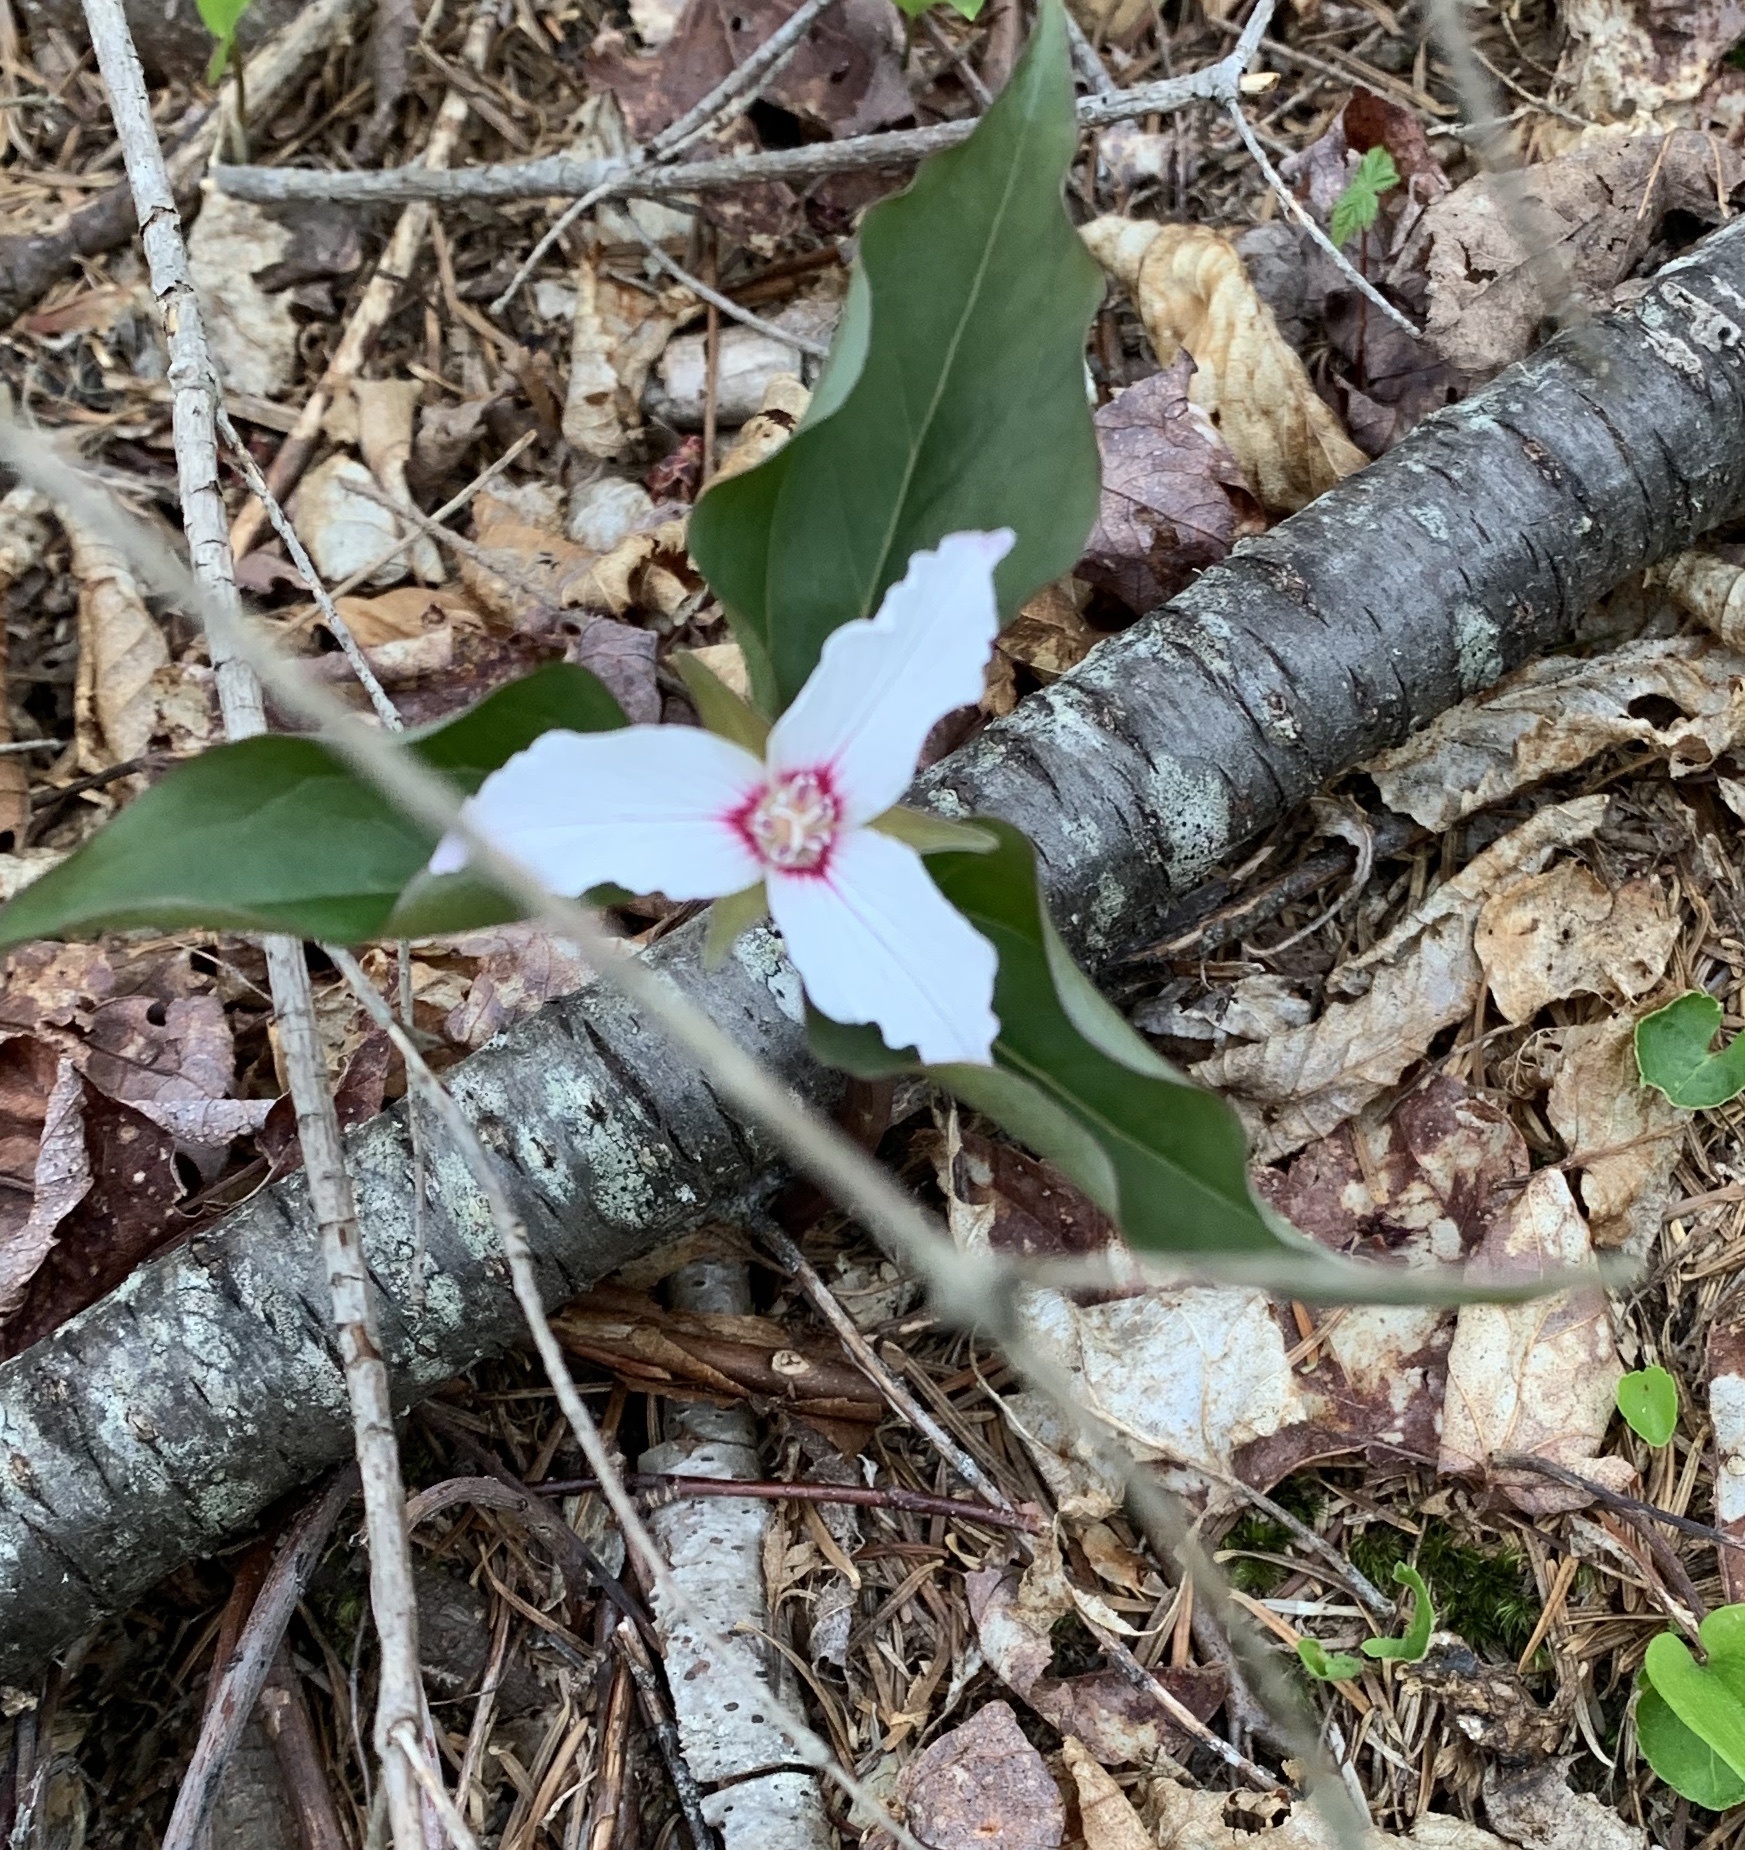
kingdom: Plantae
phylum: Tracheophyta
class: Liliopsida
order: Liliales
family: Melanthiaceae
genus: Trillium
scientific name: Trillium undulatum
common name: Paint trillium
